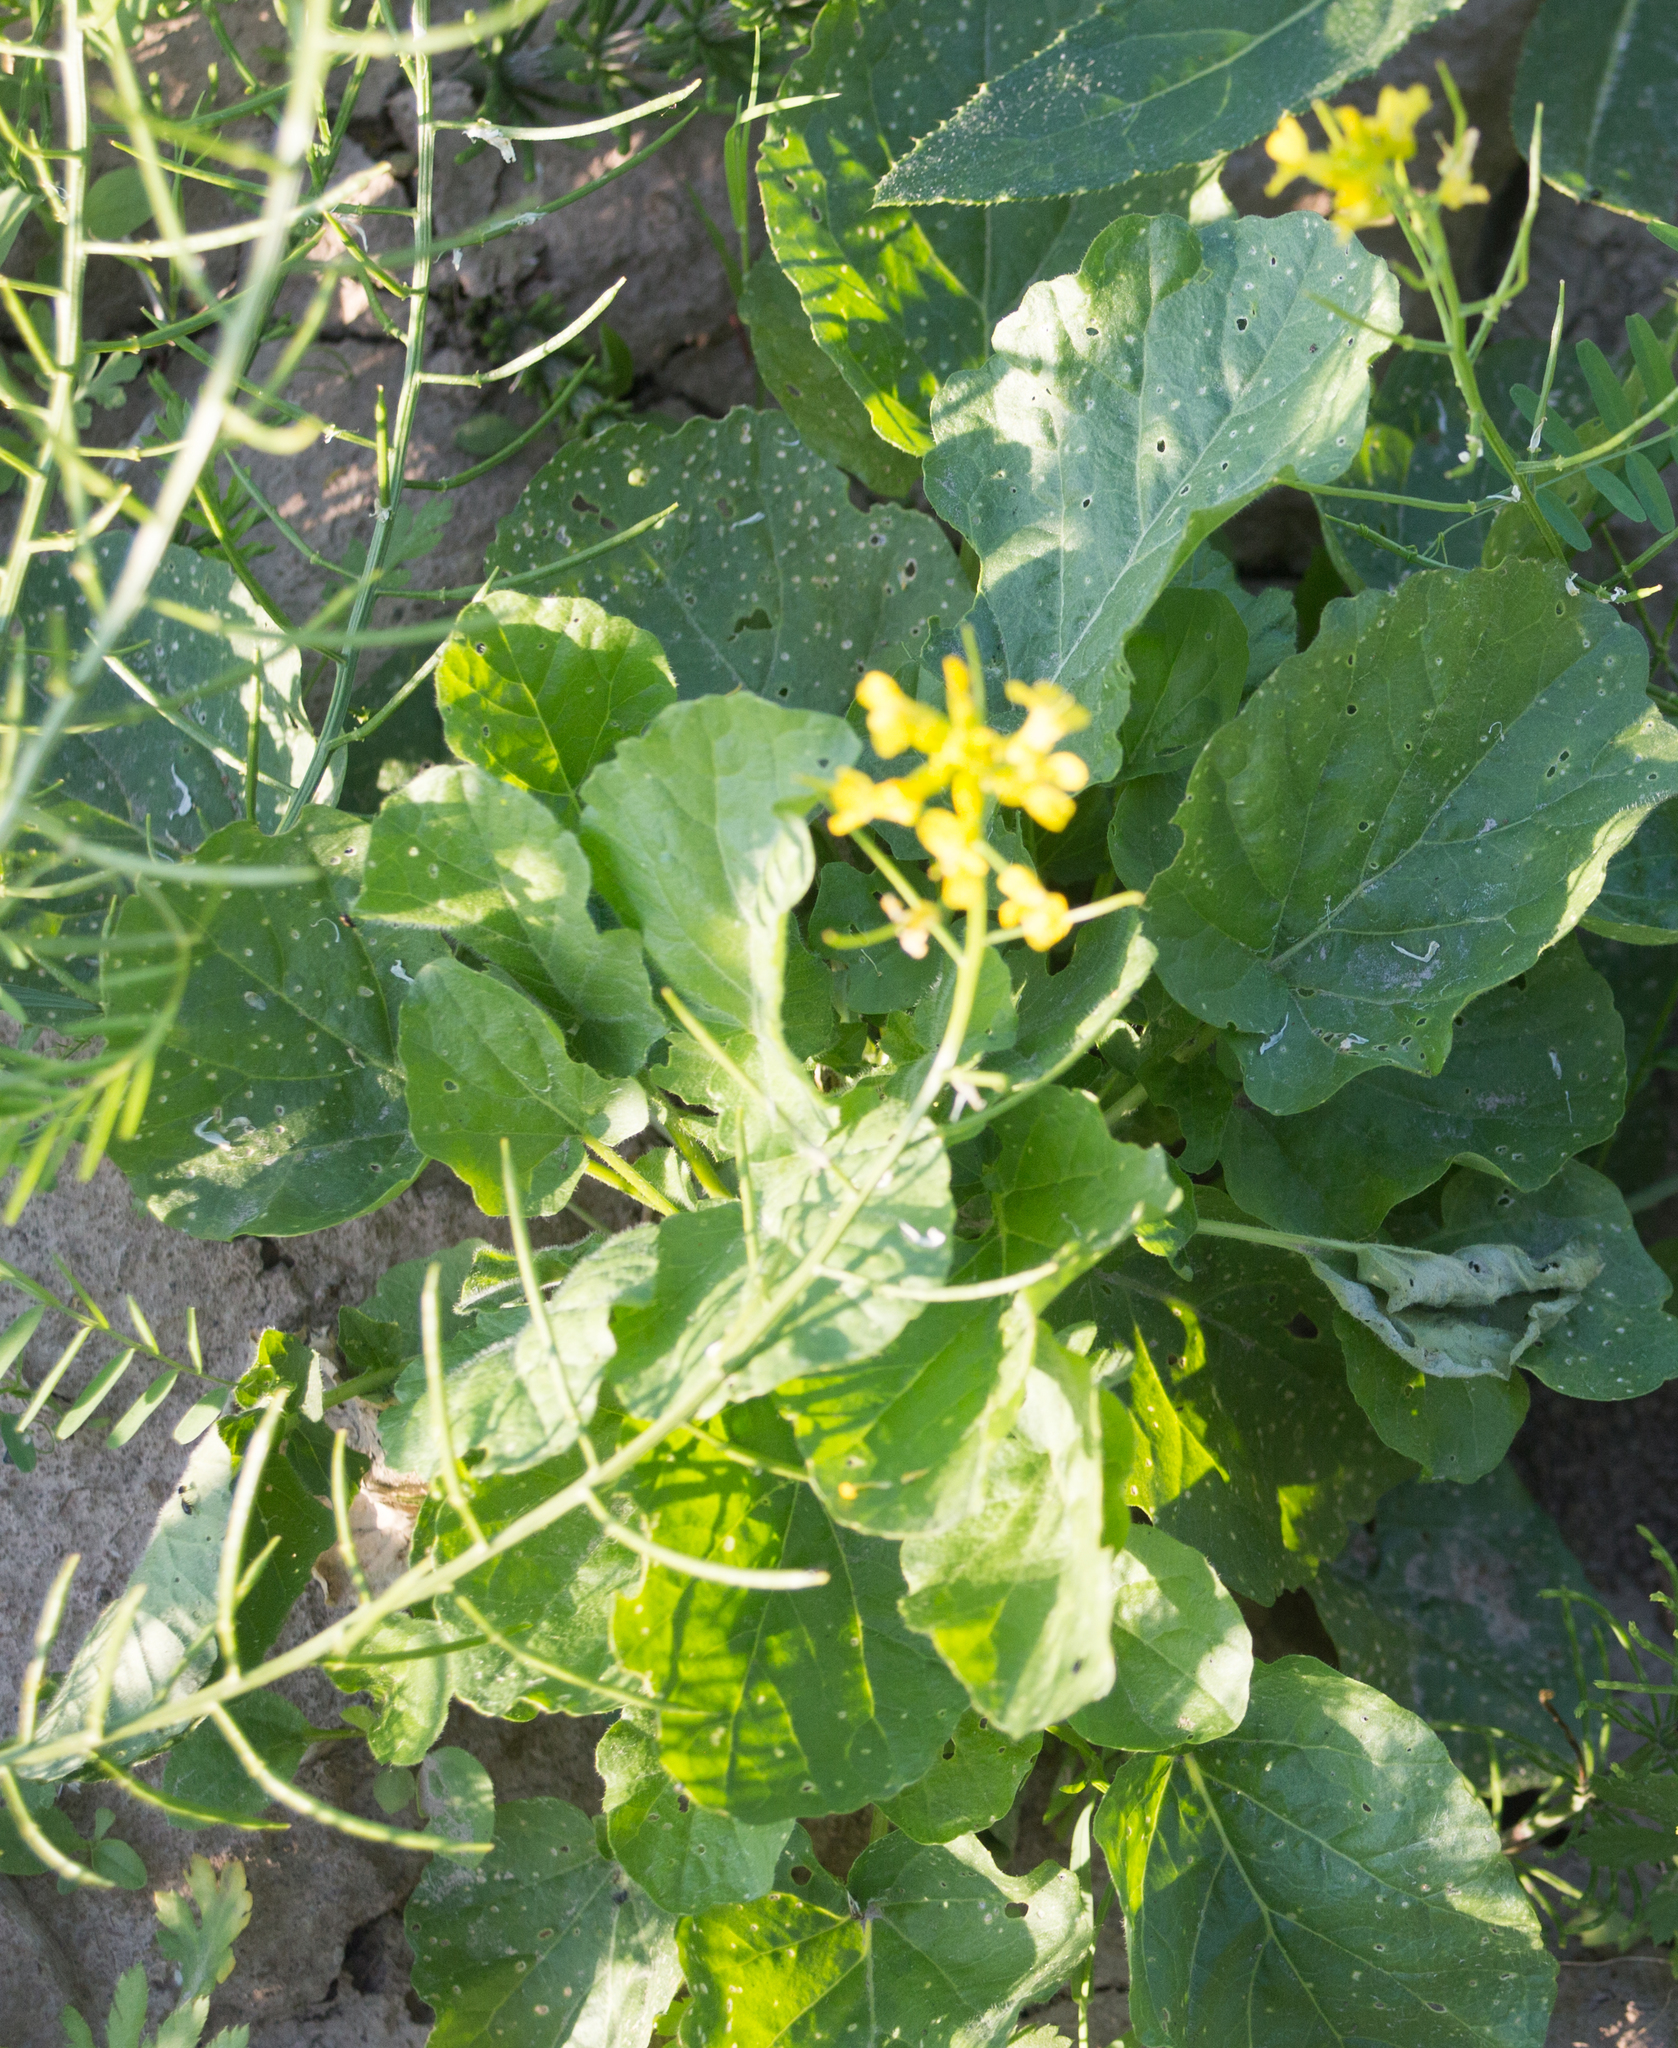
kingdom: Plantae
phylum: Tracheophyta
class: Magnoliopsida
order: Brassicales
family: Brassicaceae
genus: Barbarea
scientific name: Barbarea vulgaris
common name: Cressy-greens
